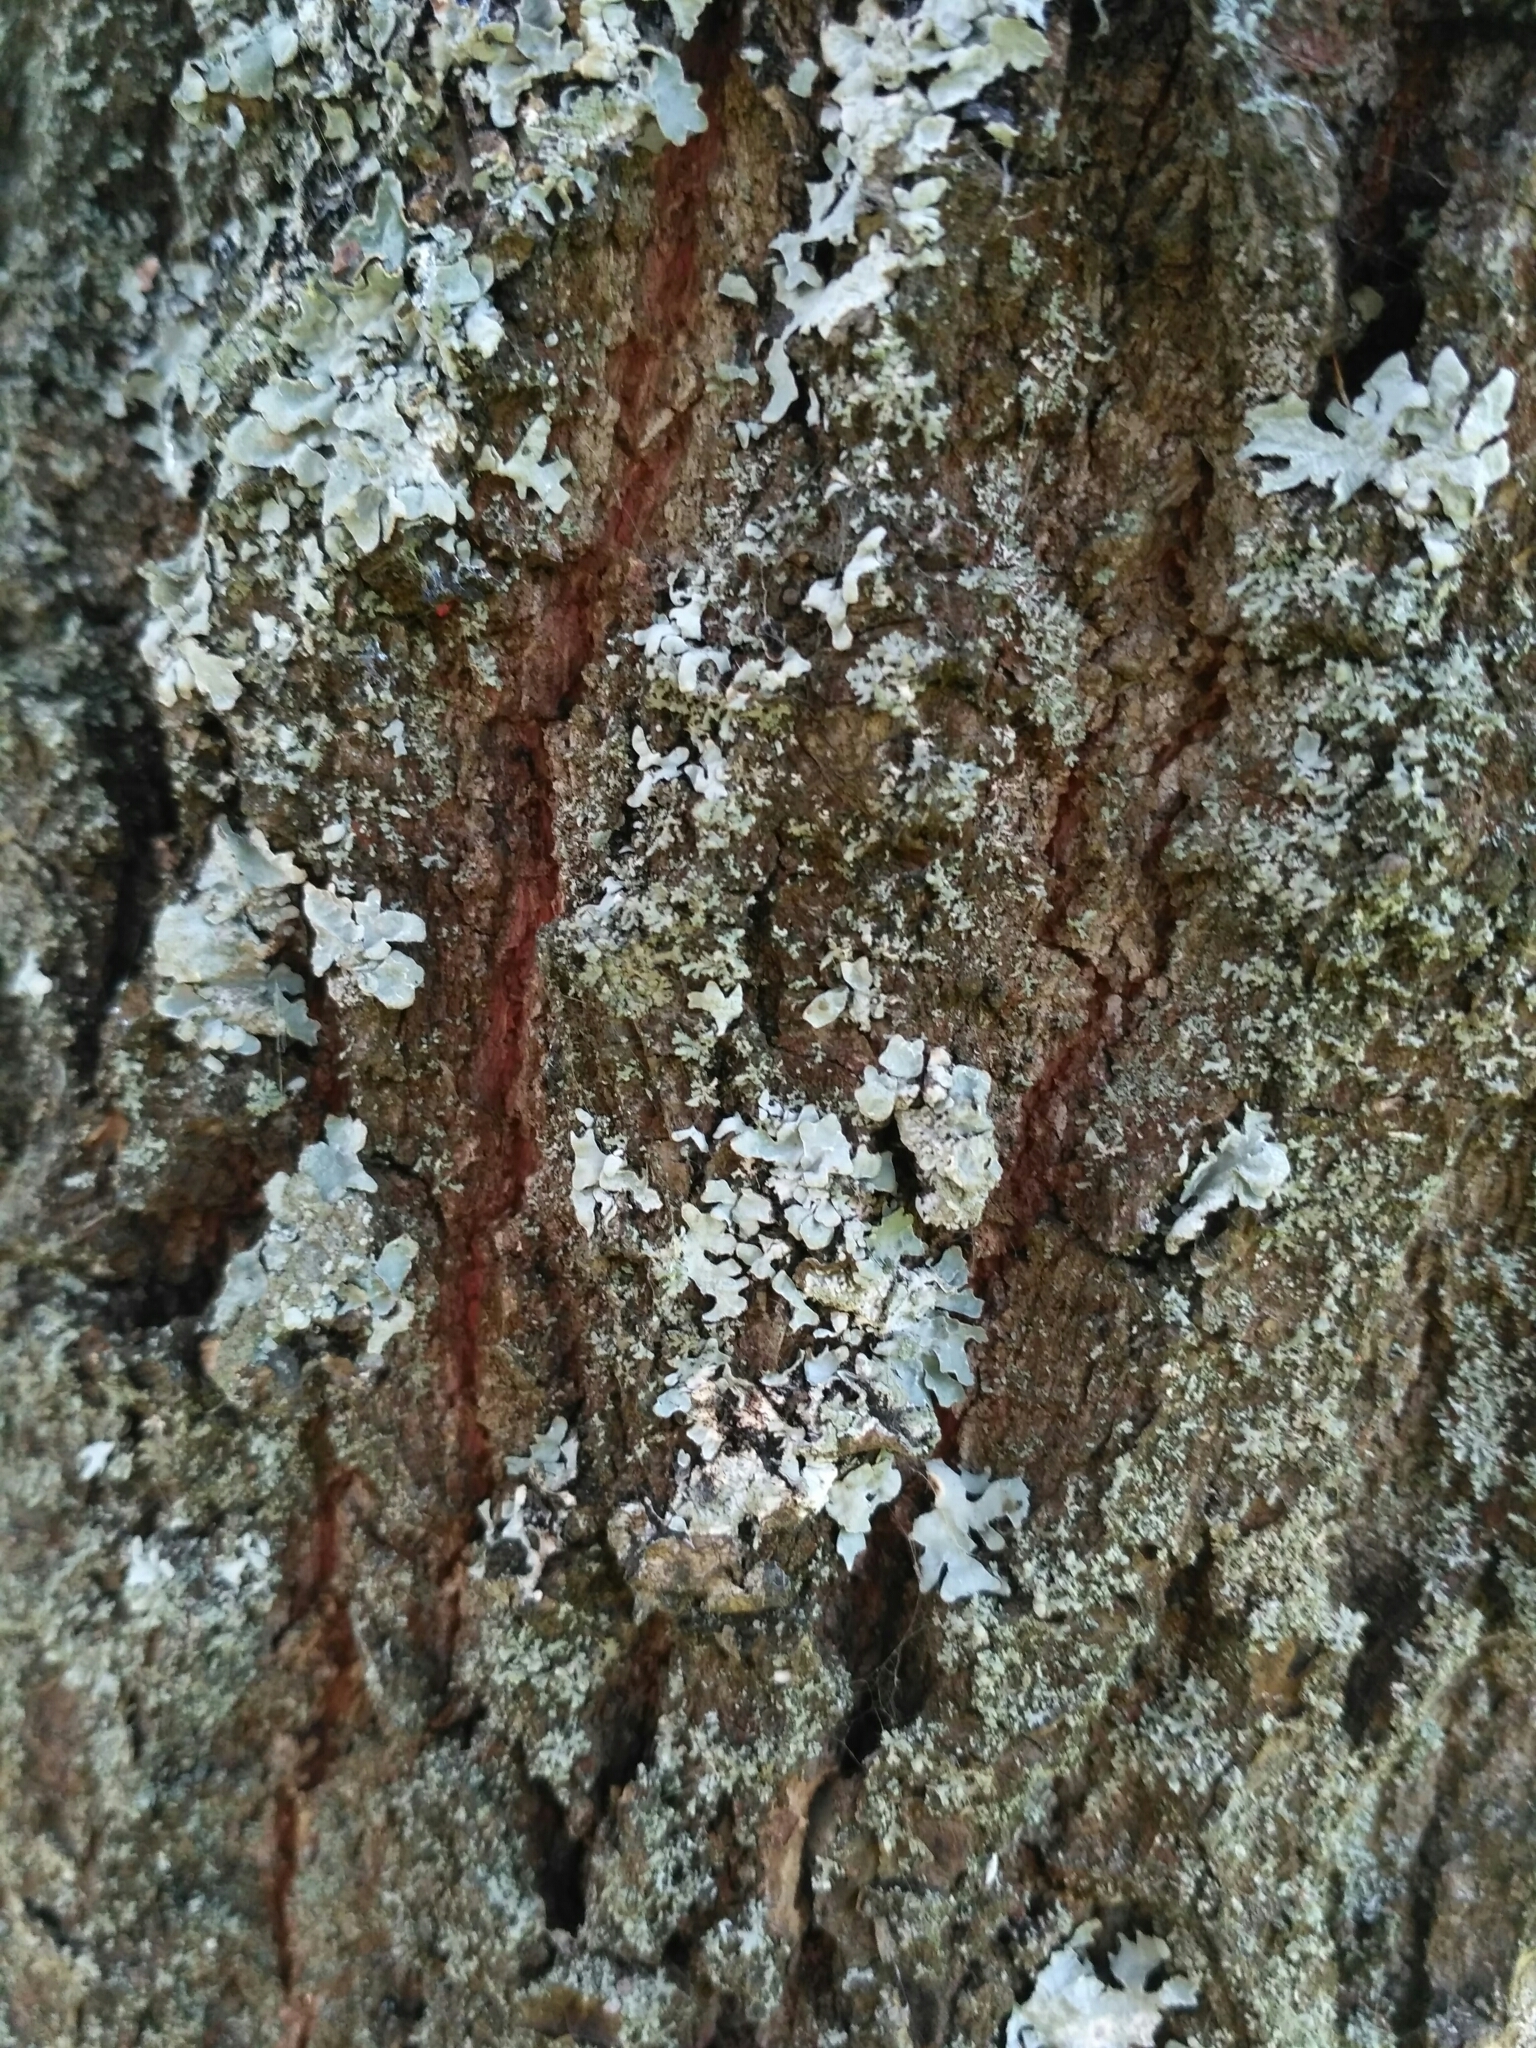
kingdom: Fungi
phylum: Ascomycota
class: Lecanoromycetes
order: Lecanorales
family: Parmeliaceae
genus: Parmelia
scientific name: Parmelia sulcata
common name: Netted shield lichen
